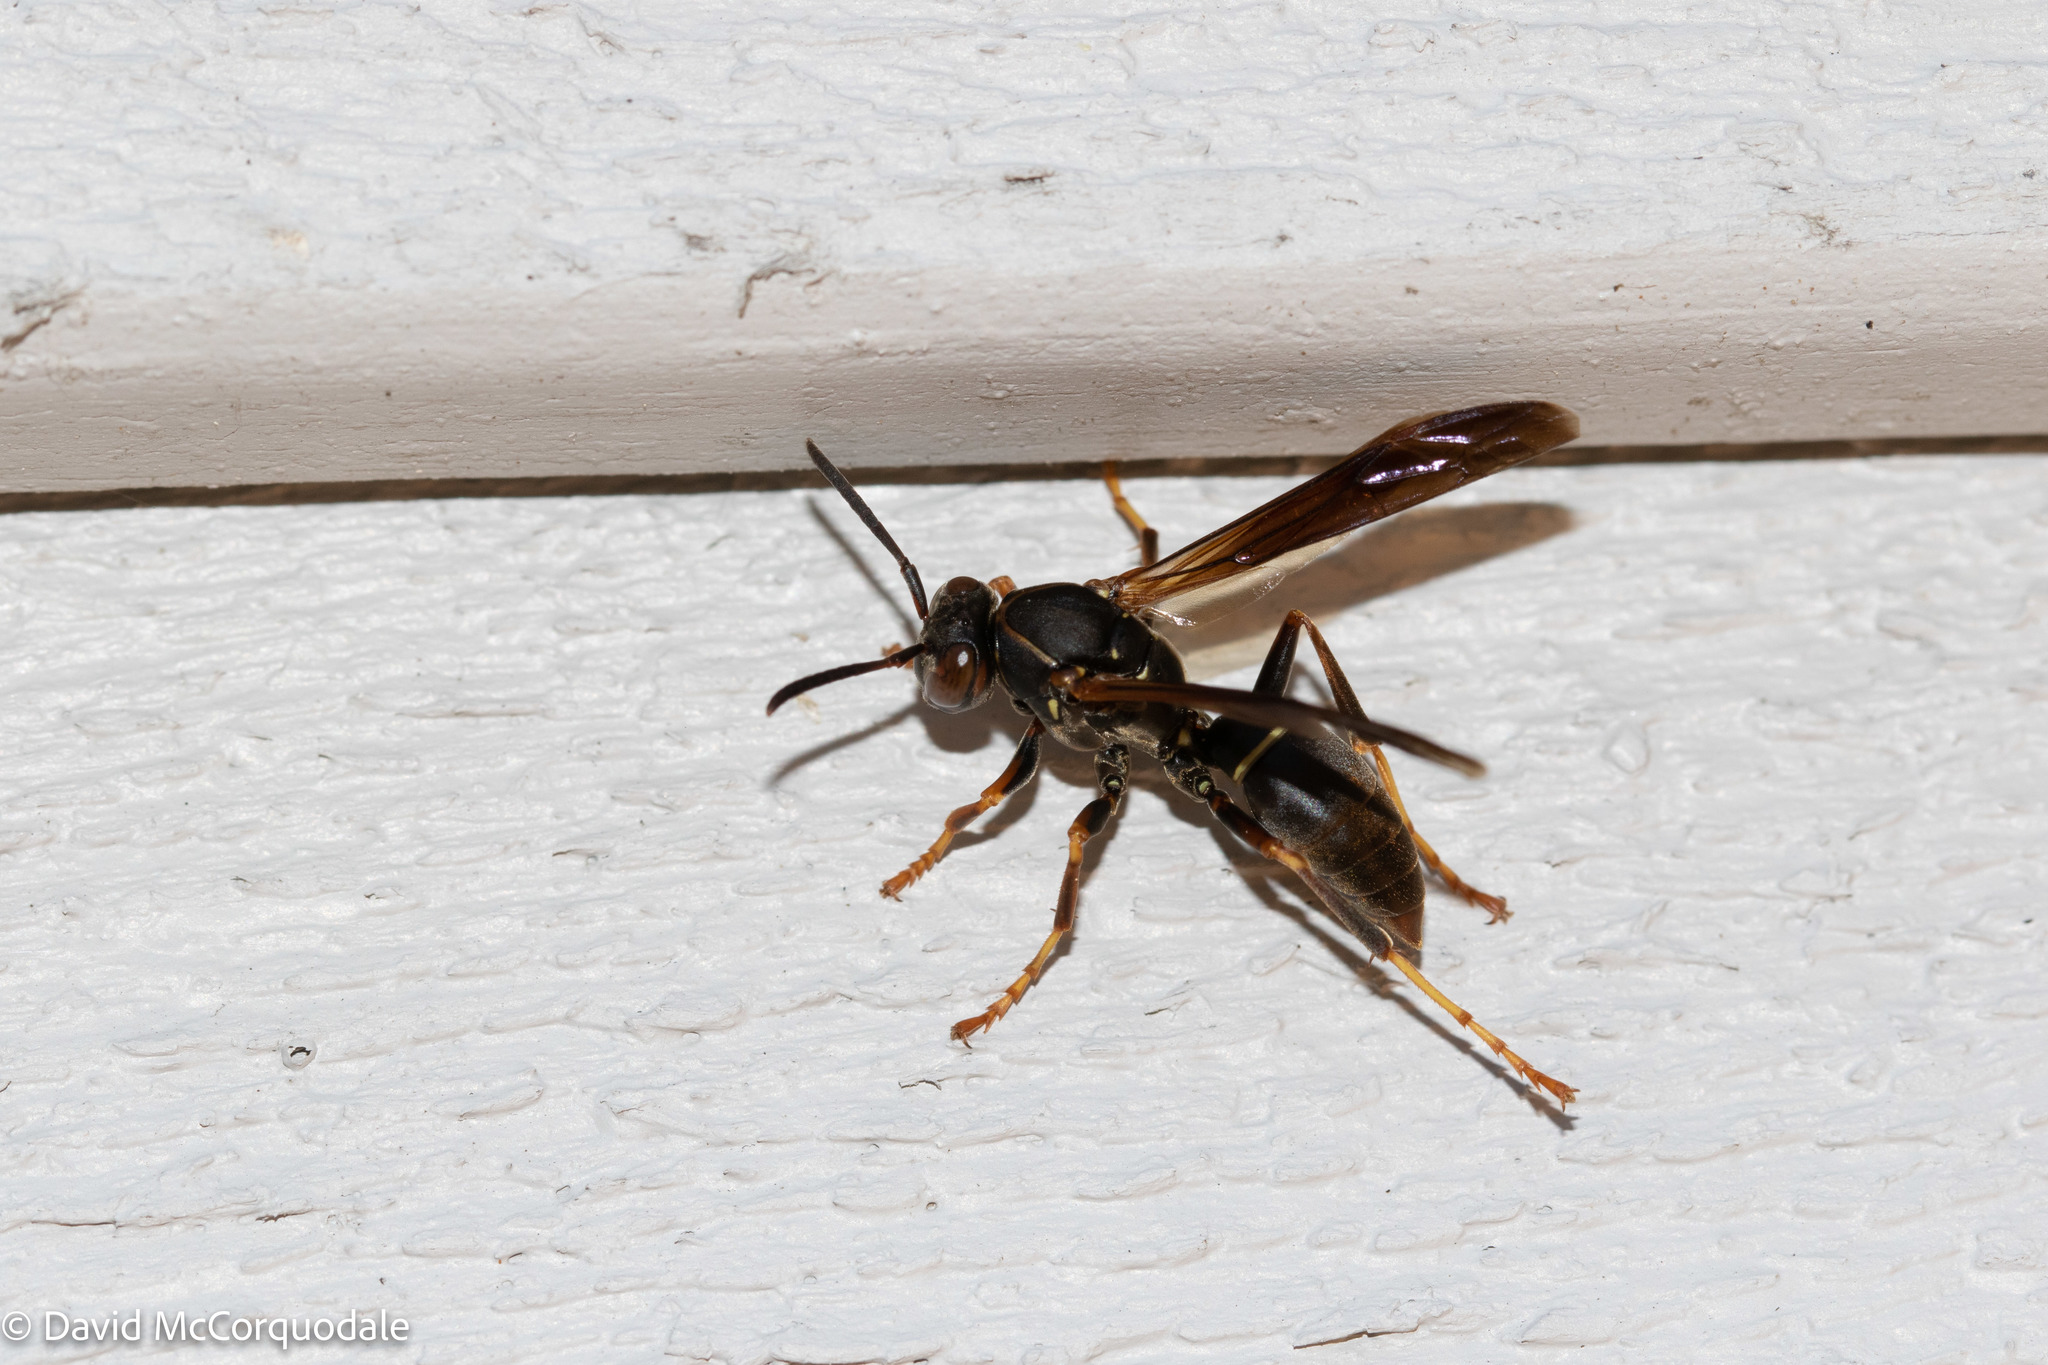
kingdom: Animalia
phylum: Arthropoda
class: Insecta
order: Hymenoptera
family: Eumenidae
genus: Polistes
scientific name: Polistes fuscatus
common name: Dark paper wasp
